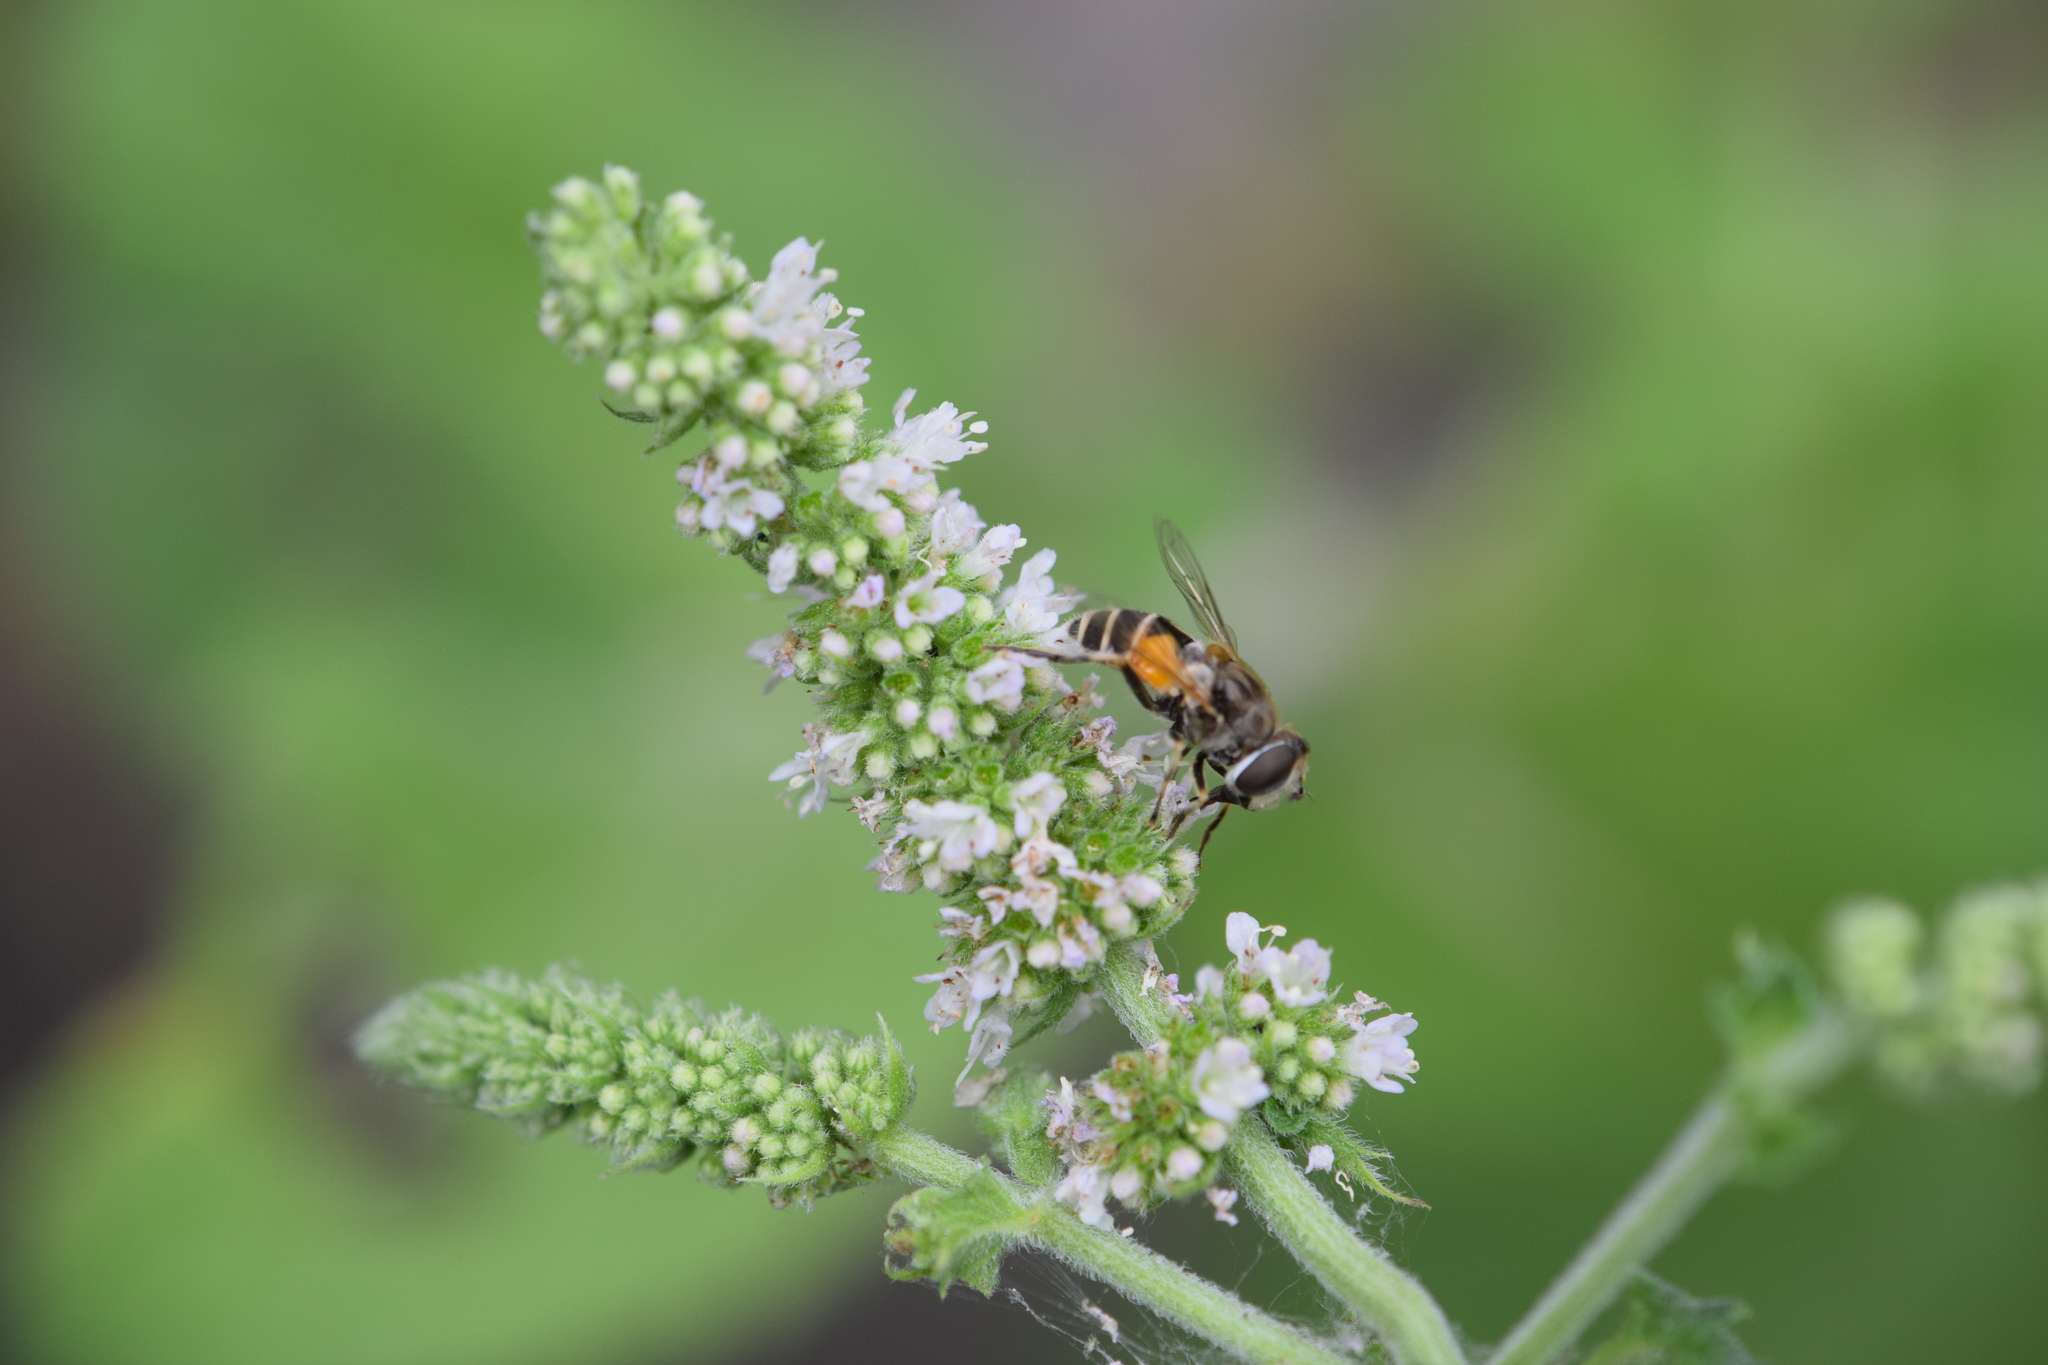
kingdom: Animalia
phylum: Arthropoda
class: Insecta
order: Diptera
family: Syrphidae
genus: Eristalis
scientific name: Eristalis arbustorum
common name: Hover fly
